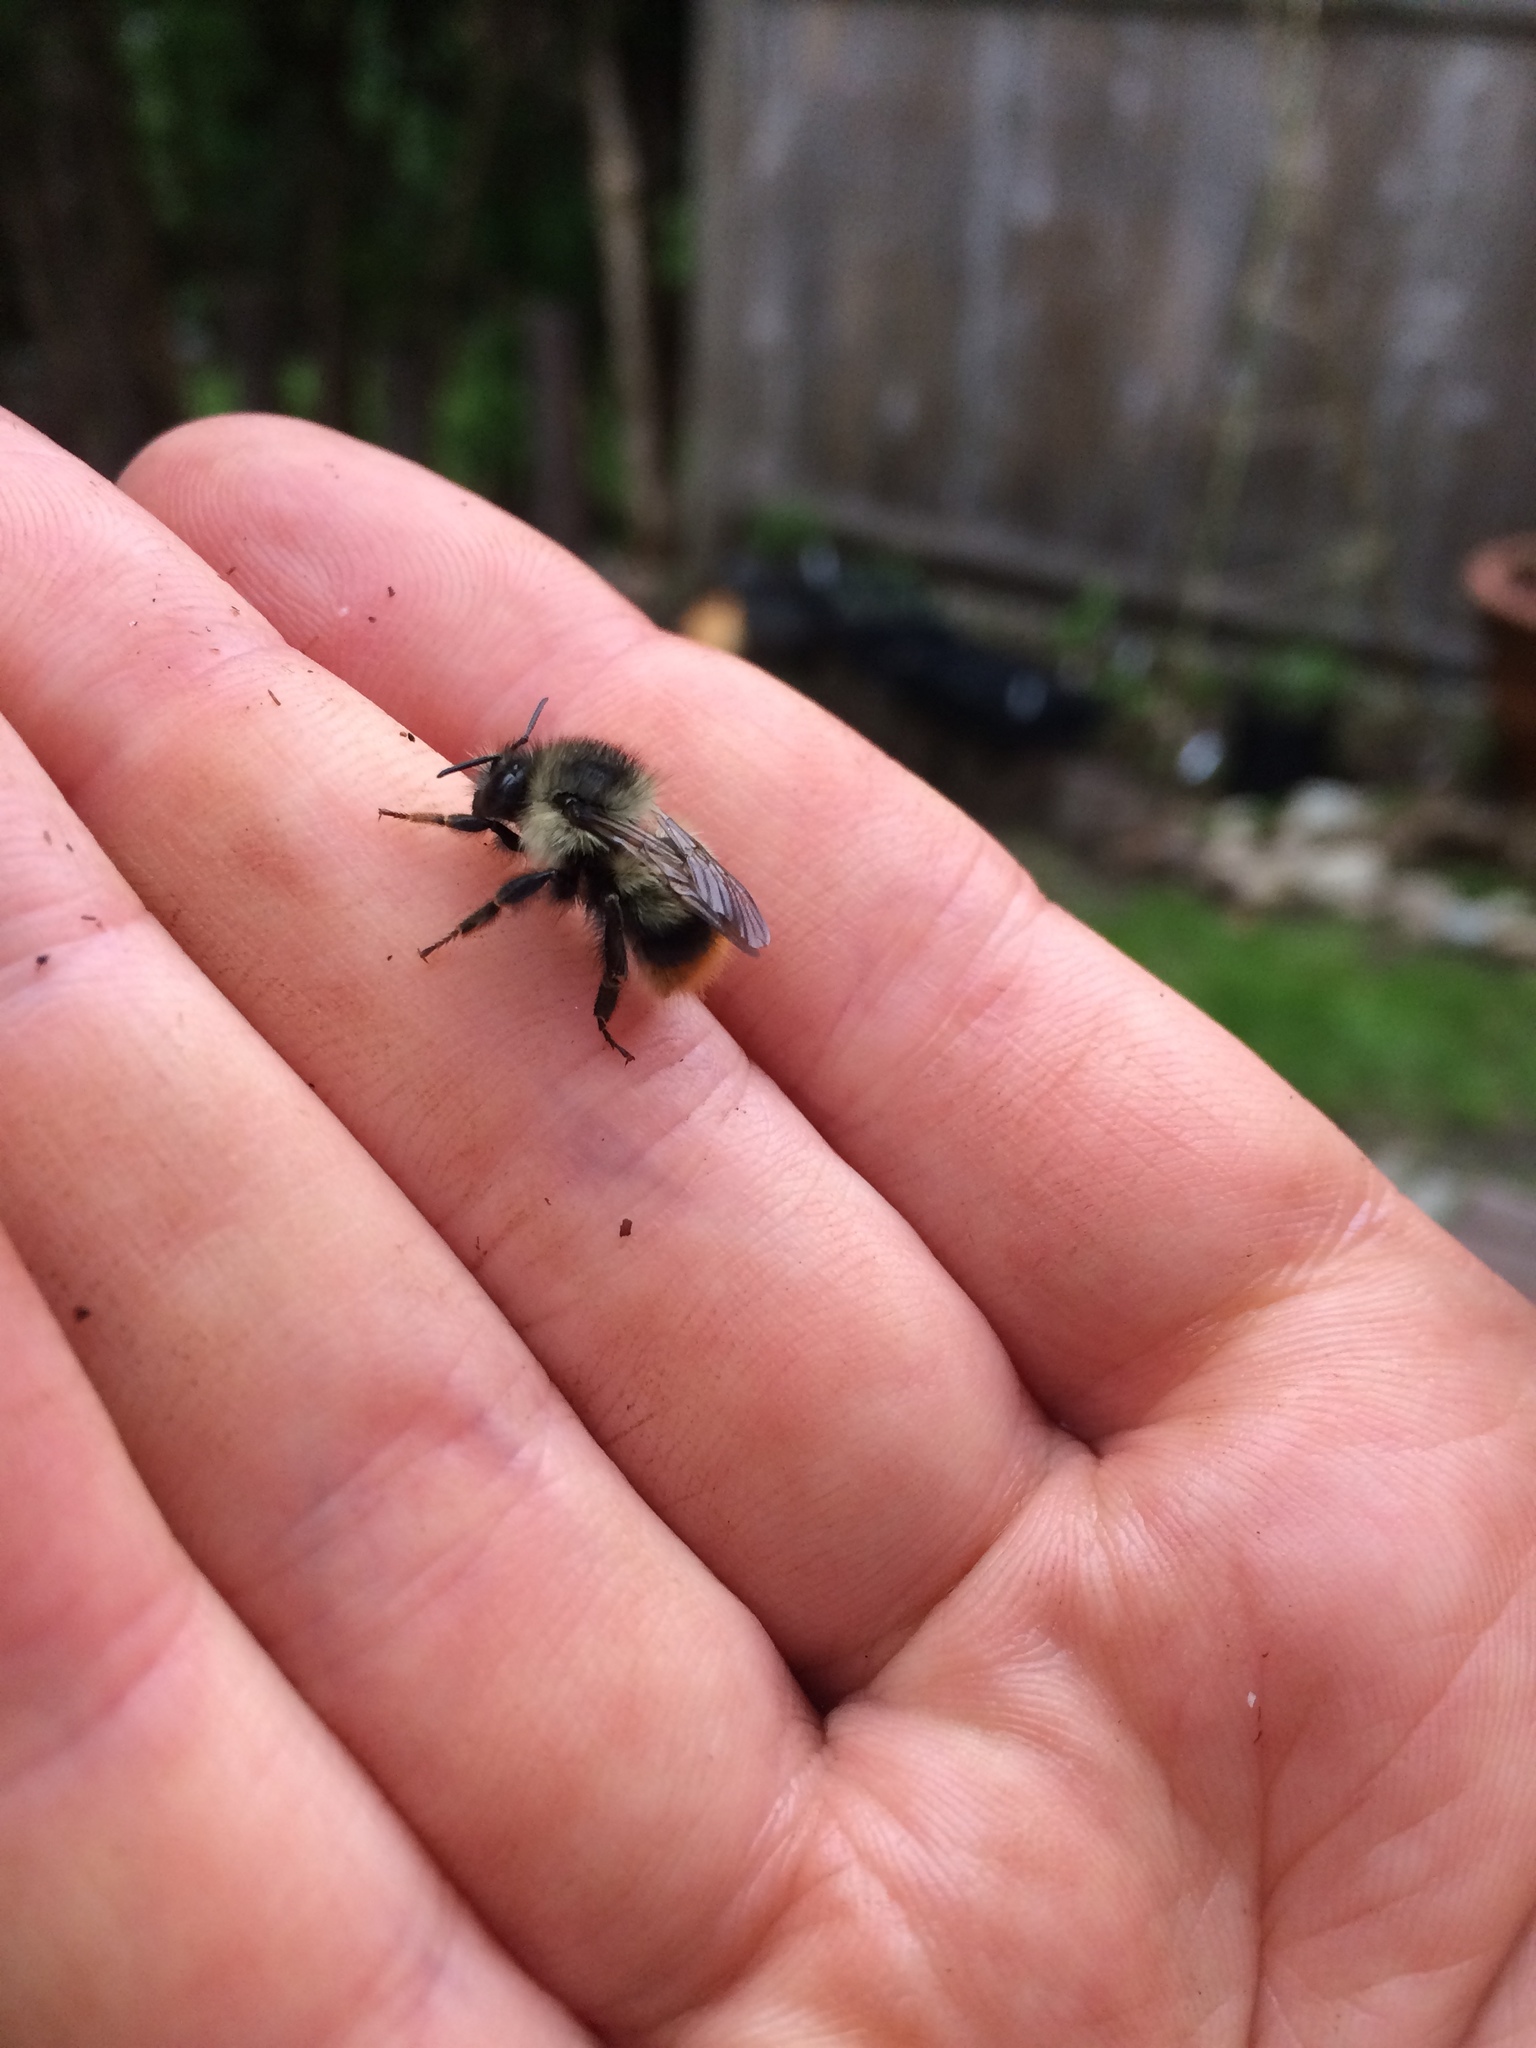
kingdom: Animalia
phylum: Arthropoda
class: Insecta
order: Hymenoptera
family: Apidae
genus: Bombus
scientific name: Bombus mixtus
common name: Fuzzy-horned bumble bee
